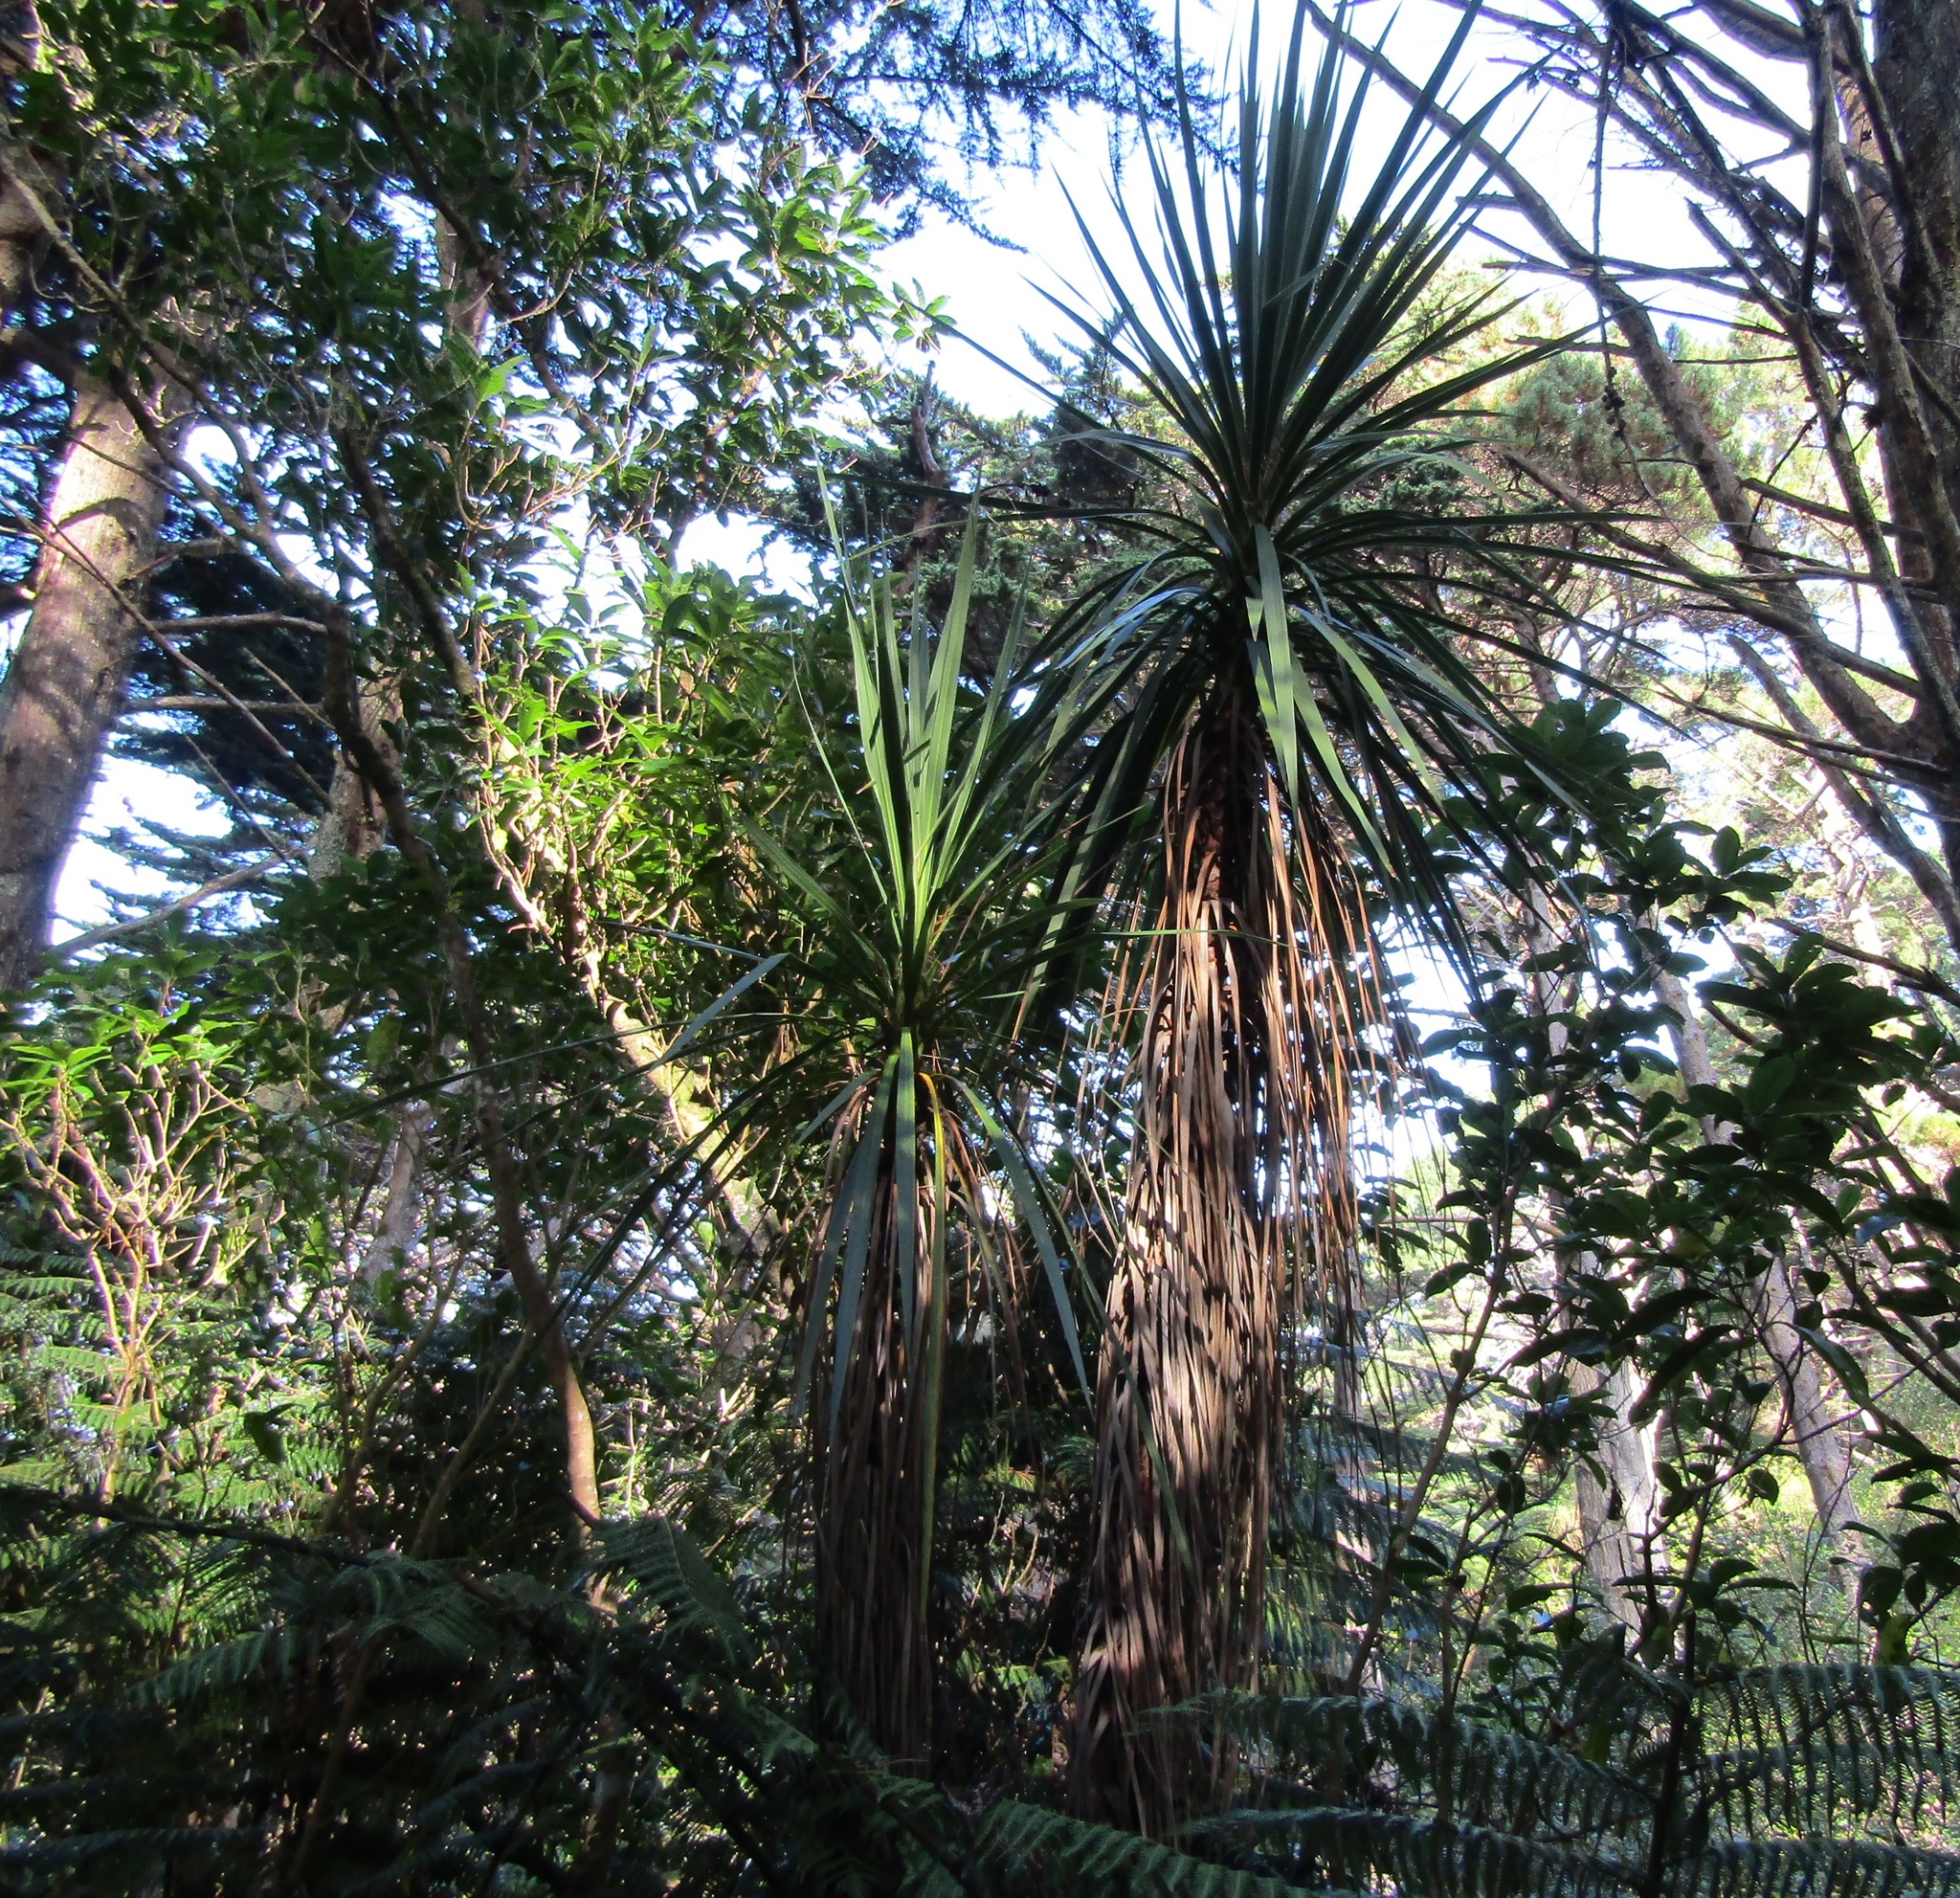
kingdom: Plantae
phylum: Tracheophyta
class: Liliopsida
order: Asparagales
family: Asparagaceae
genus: Cordyline
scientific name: Cordyline australis
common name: Cabbage-palm
